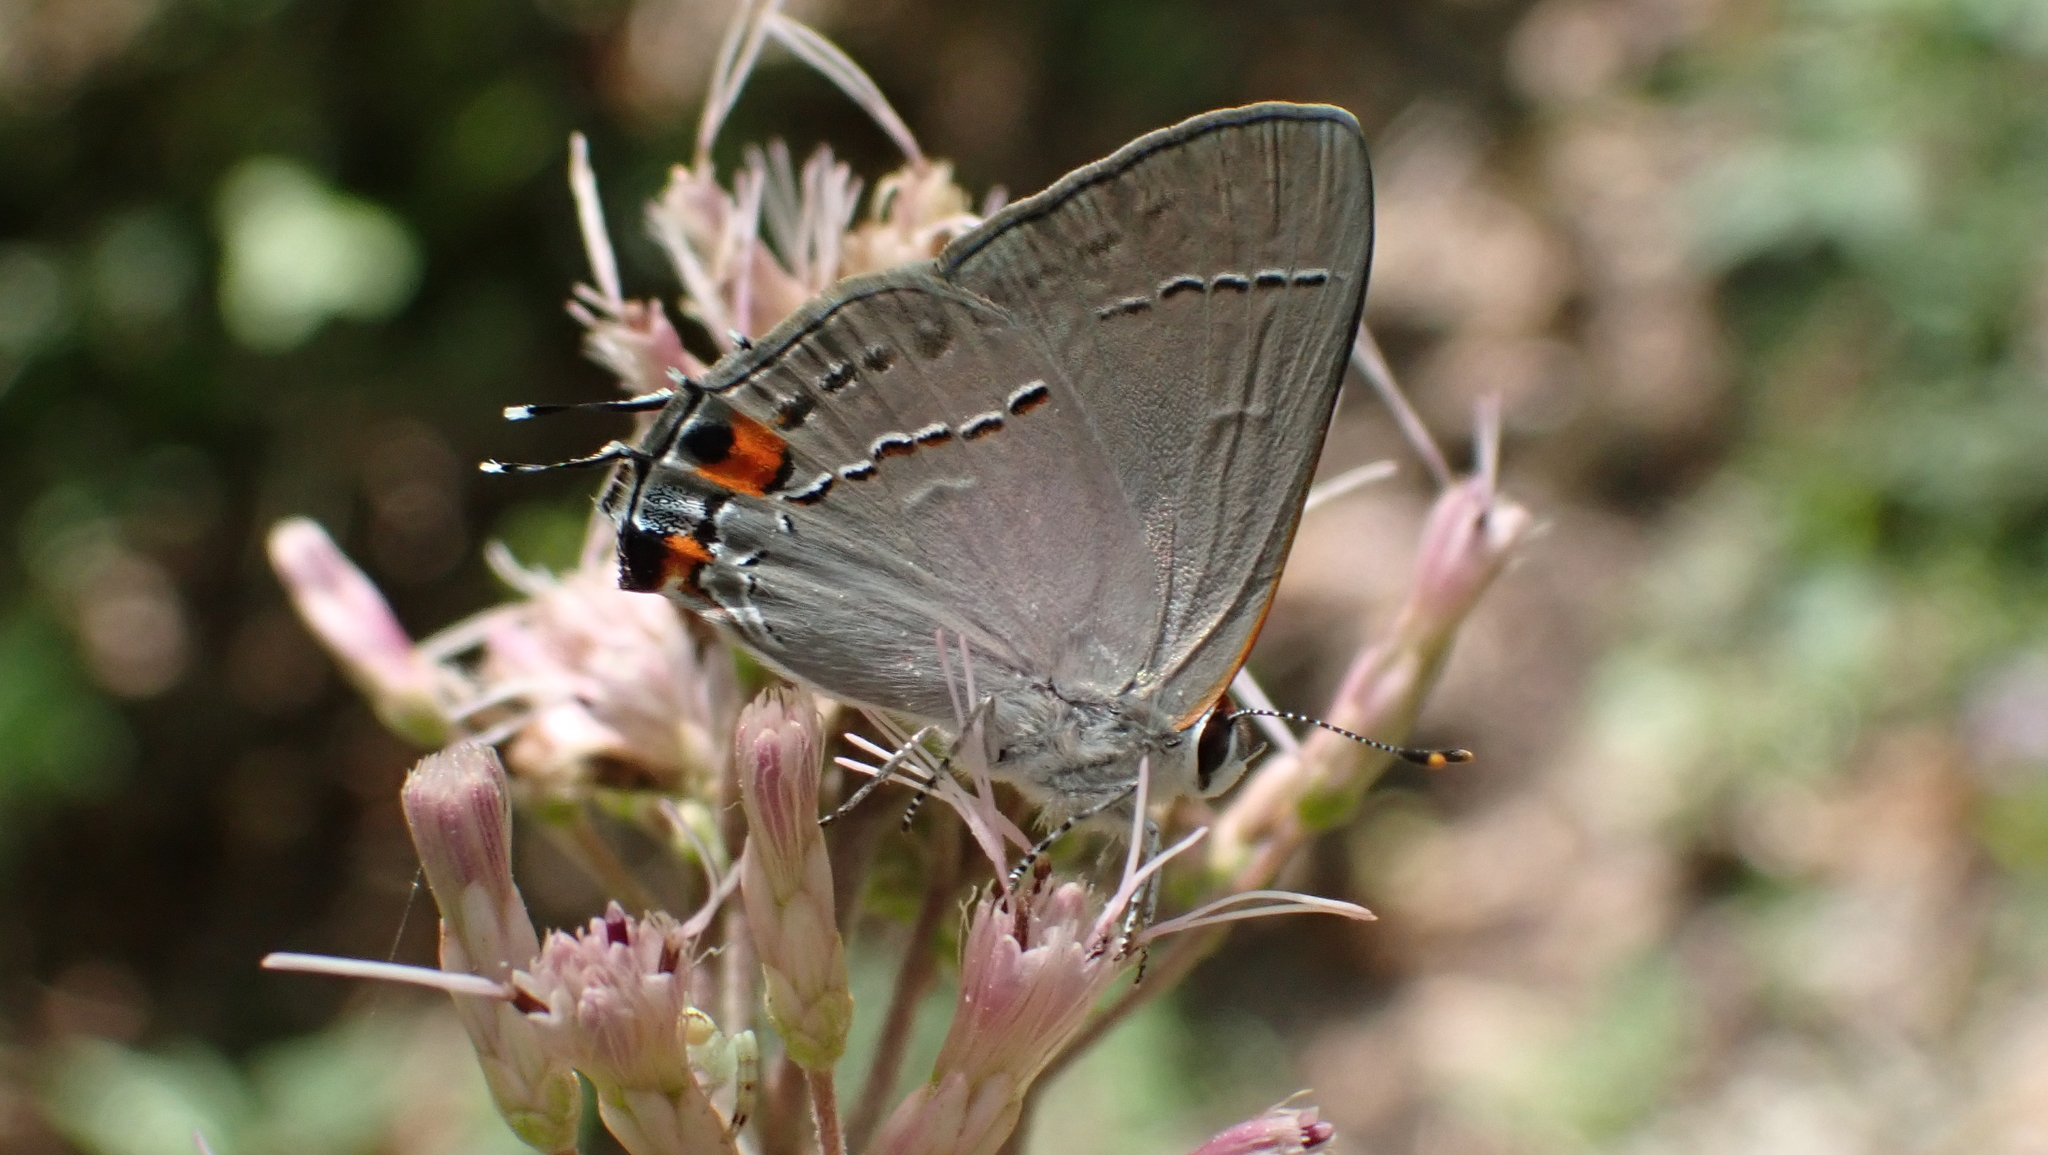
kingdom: Animalia
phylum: Arthropoda
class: Insecta
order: Lepidoptera
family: Lycaenidae
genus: Strymon
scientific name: Strymon melinus
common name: Gray hairstreak
